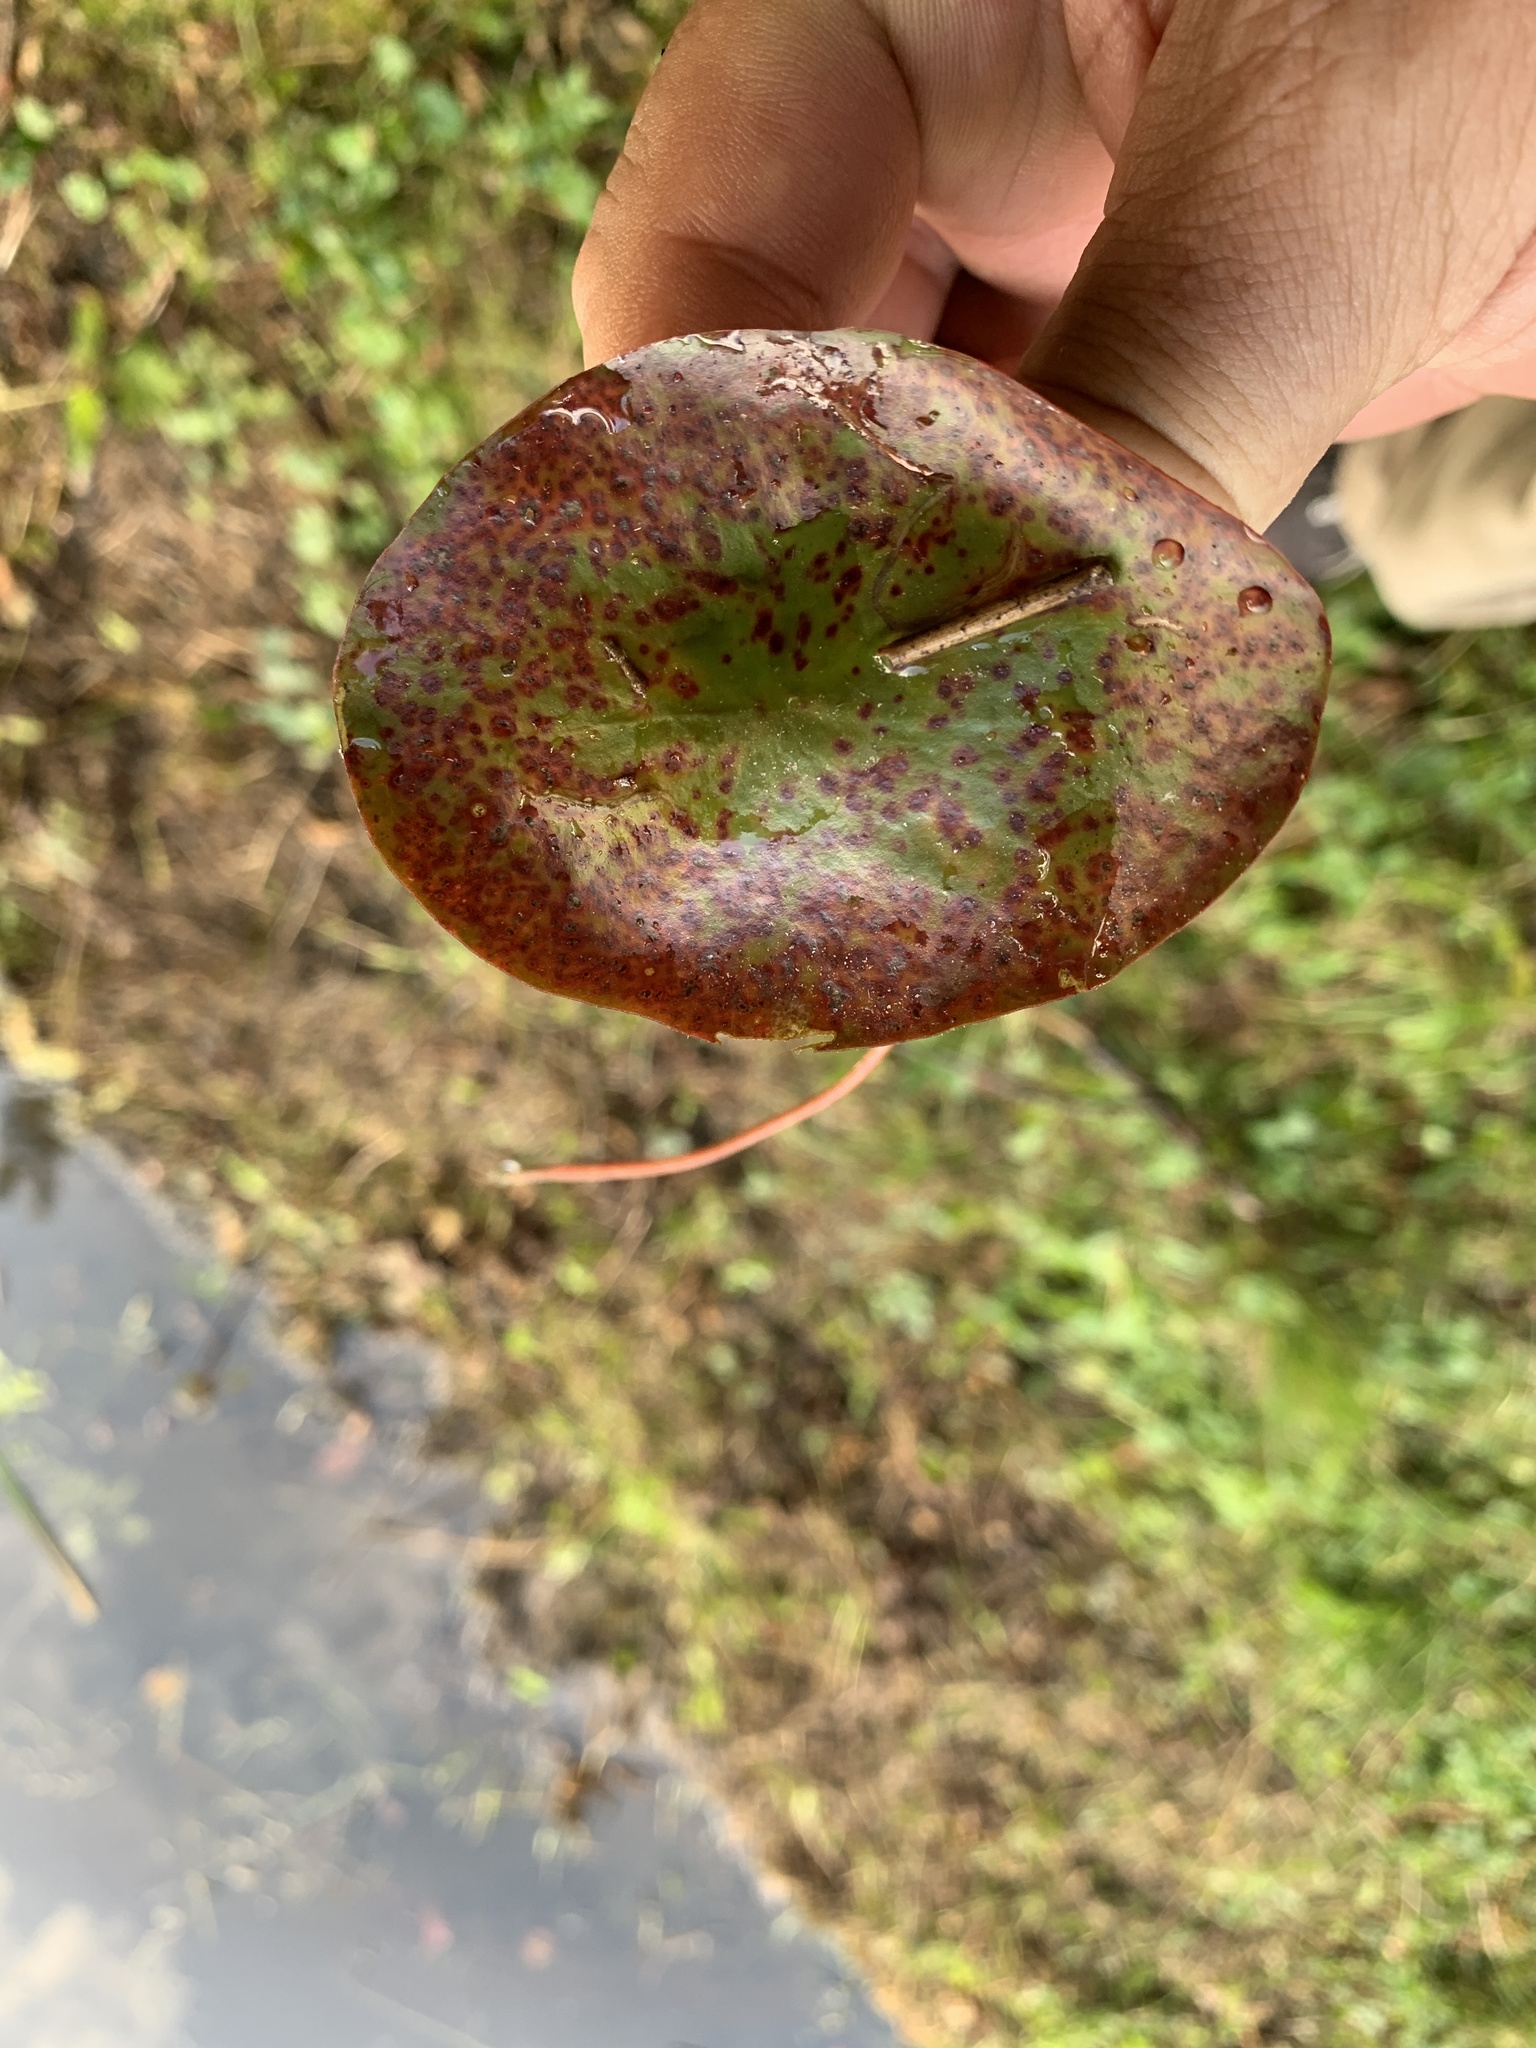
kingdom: Plantae
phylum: Tracheophyta
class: Magnoliopsida
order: Nymphaeales
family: Cabombaceae
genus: Brasenia
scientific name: Brasenia schreberi
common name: Water-shield
